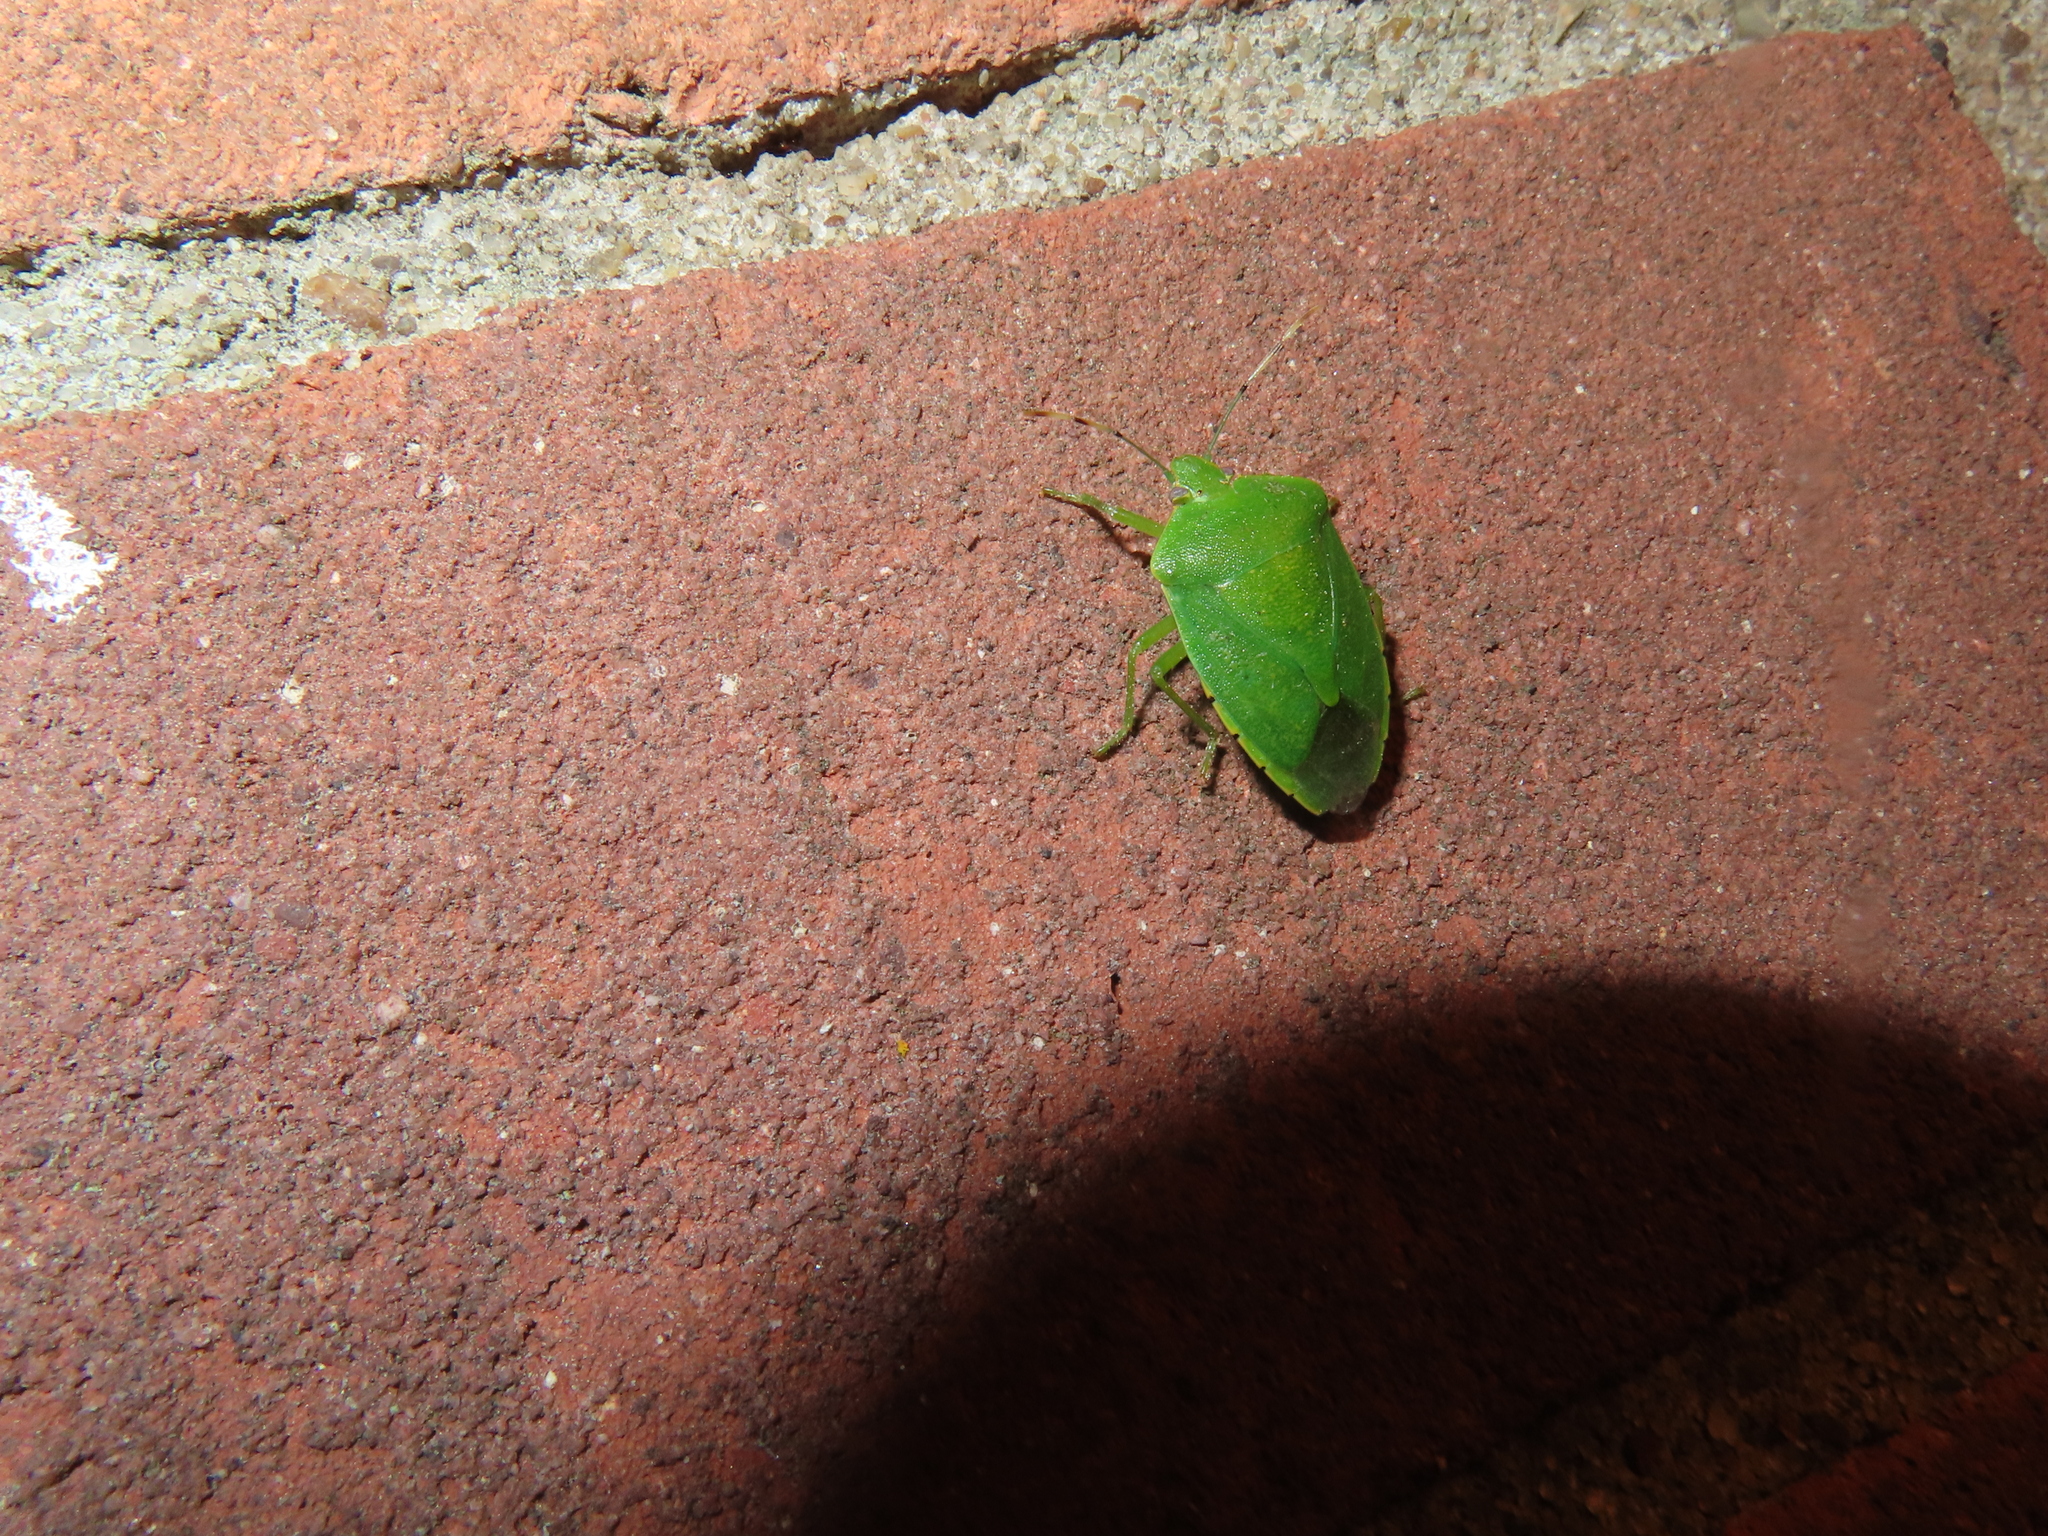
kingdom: Animalia
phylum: Arthropoda
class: Insecta
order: Hemiptera
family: Pentatomidae
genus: Chinavia
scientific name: Chinavia hilaris
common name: Green stink bug
